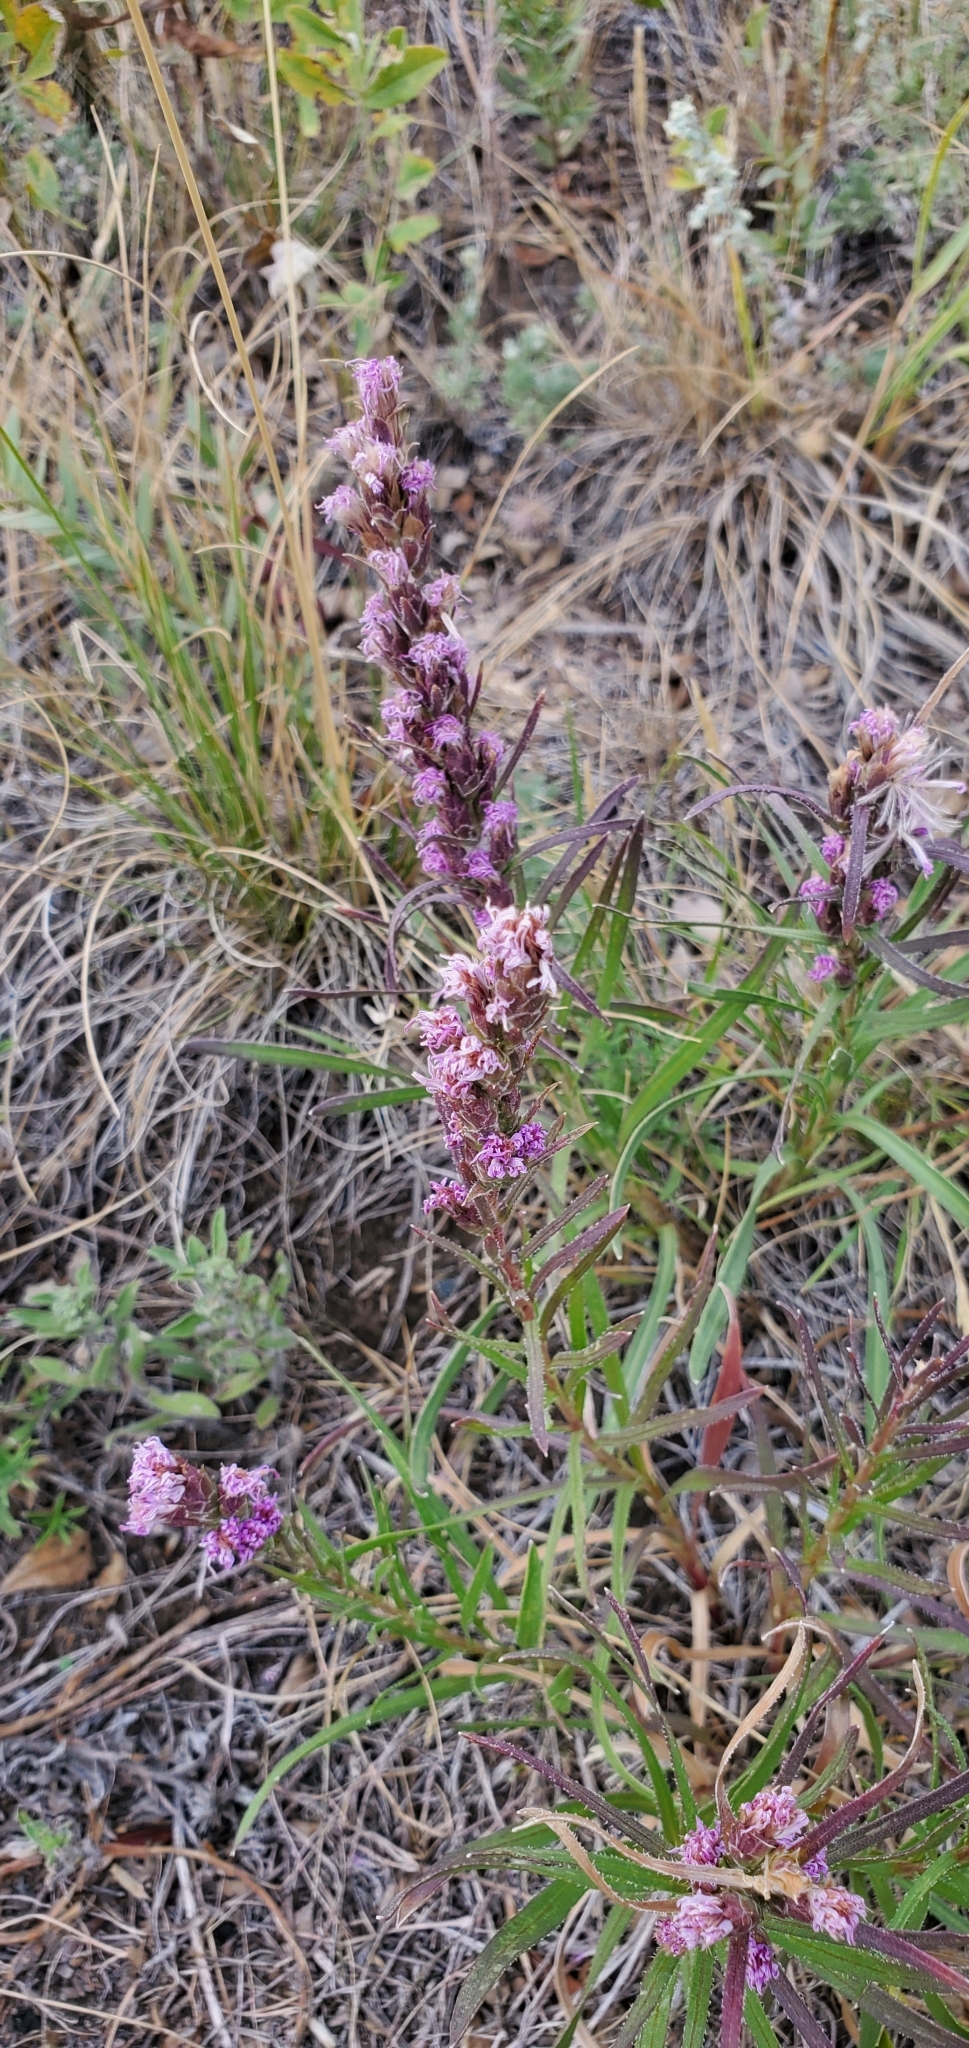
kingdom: Plantae
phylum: Tracheophyta
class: Magnoliopsida
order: Asterales
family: Asteraceae
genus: Liatris
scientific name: Liatris punctata
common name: Dotted gayfeather
